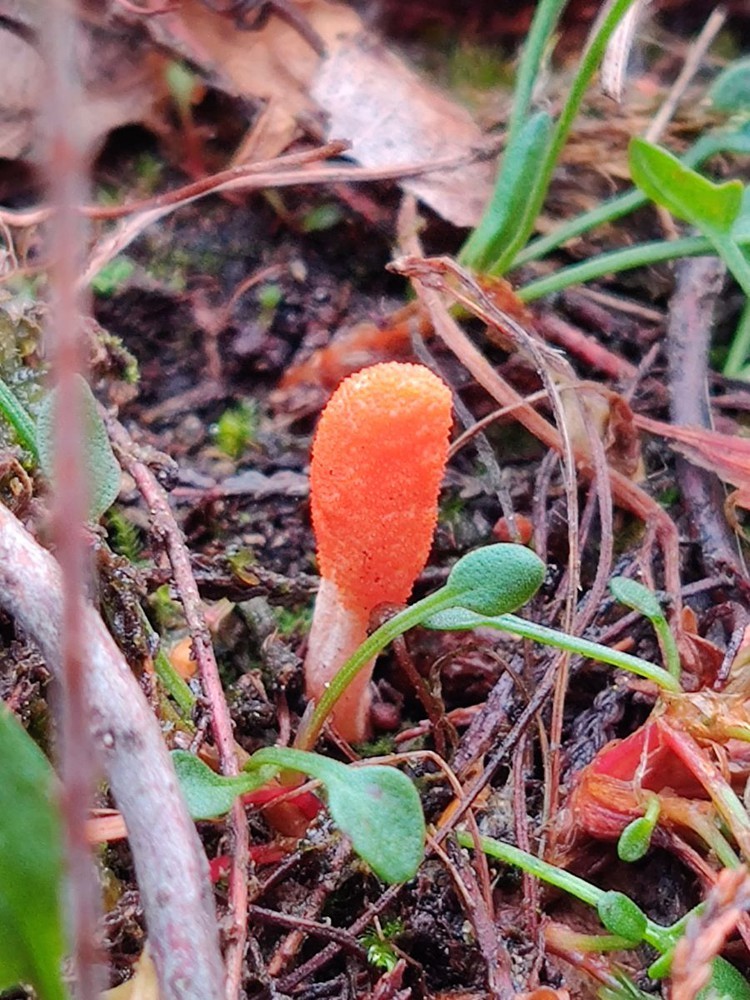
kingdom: Fungi
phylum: Ascomycota
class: Sordariomycetes
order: Hypocreales
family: Cordycipitaceae
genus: Cordyceps
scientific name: Cordyceps militaris
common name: Scarlet caterpillar fungus
